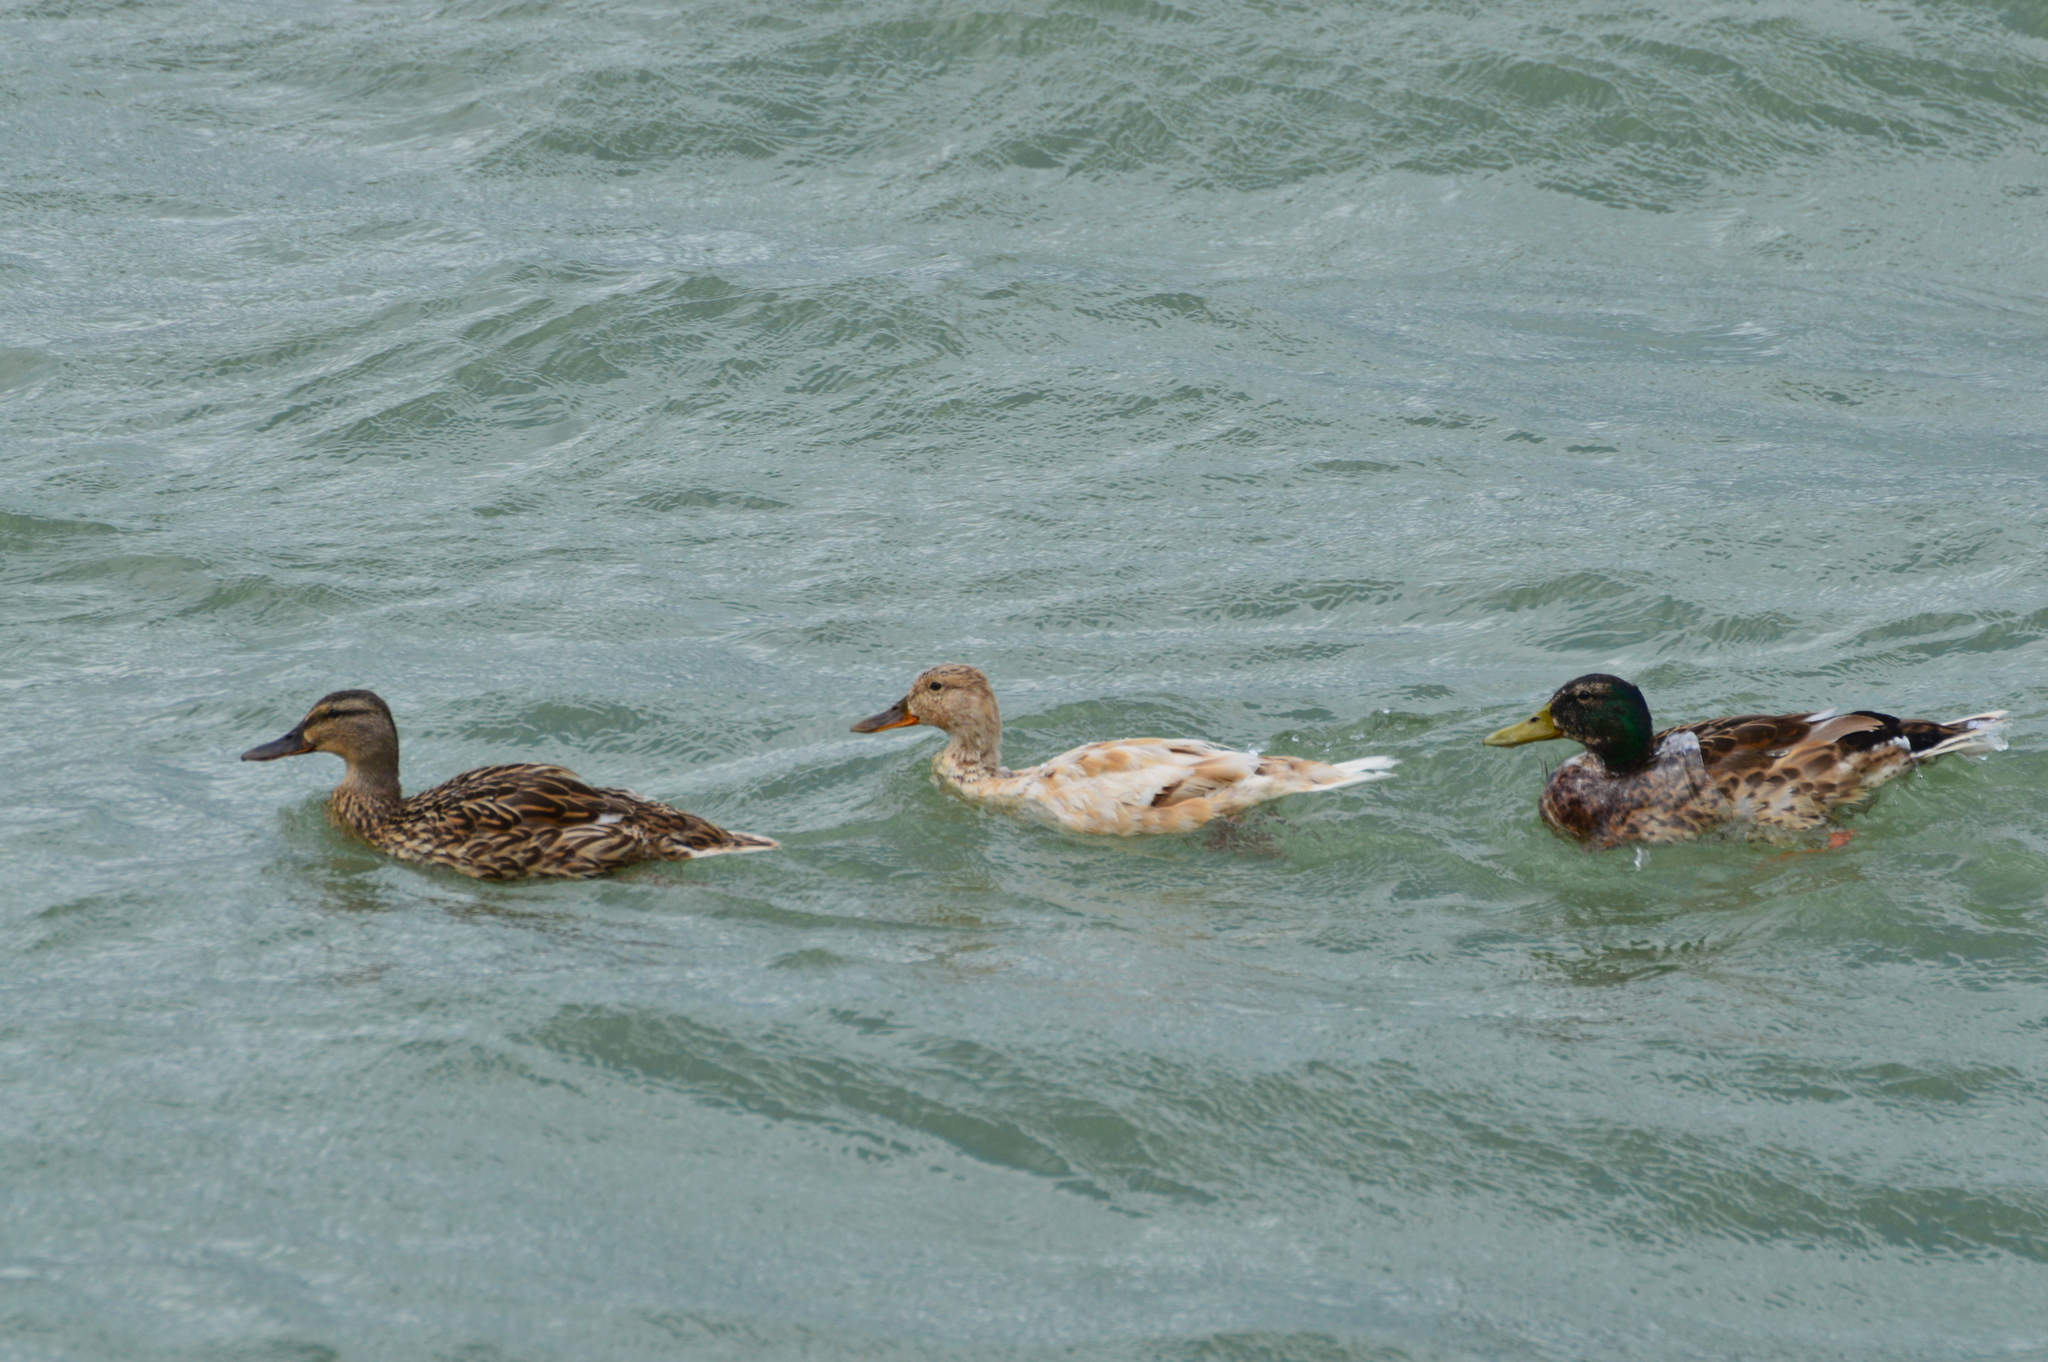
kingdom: Animalia
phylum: Chordata
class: Aves
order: Anseriformes
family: Anatidae
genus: Anas
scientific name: Anas platyrhynchos
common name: Mallard
